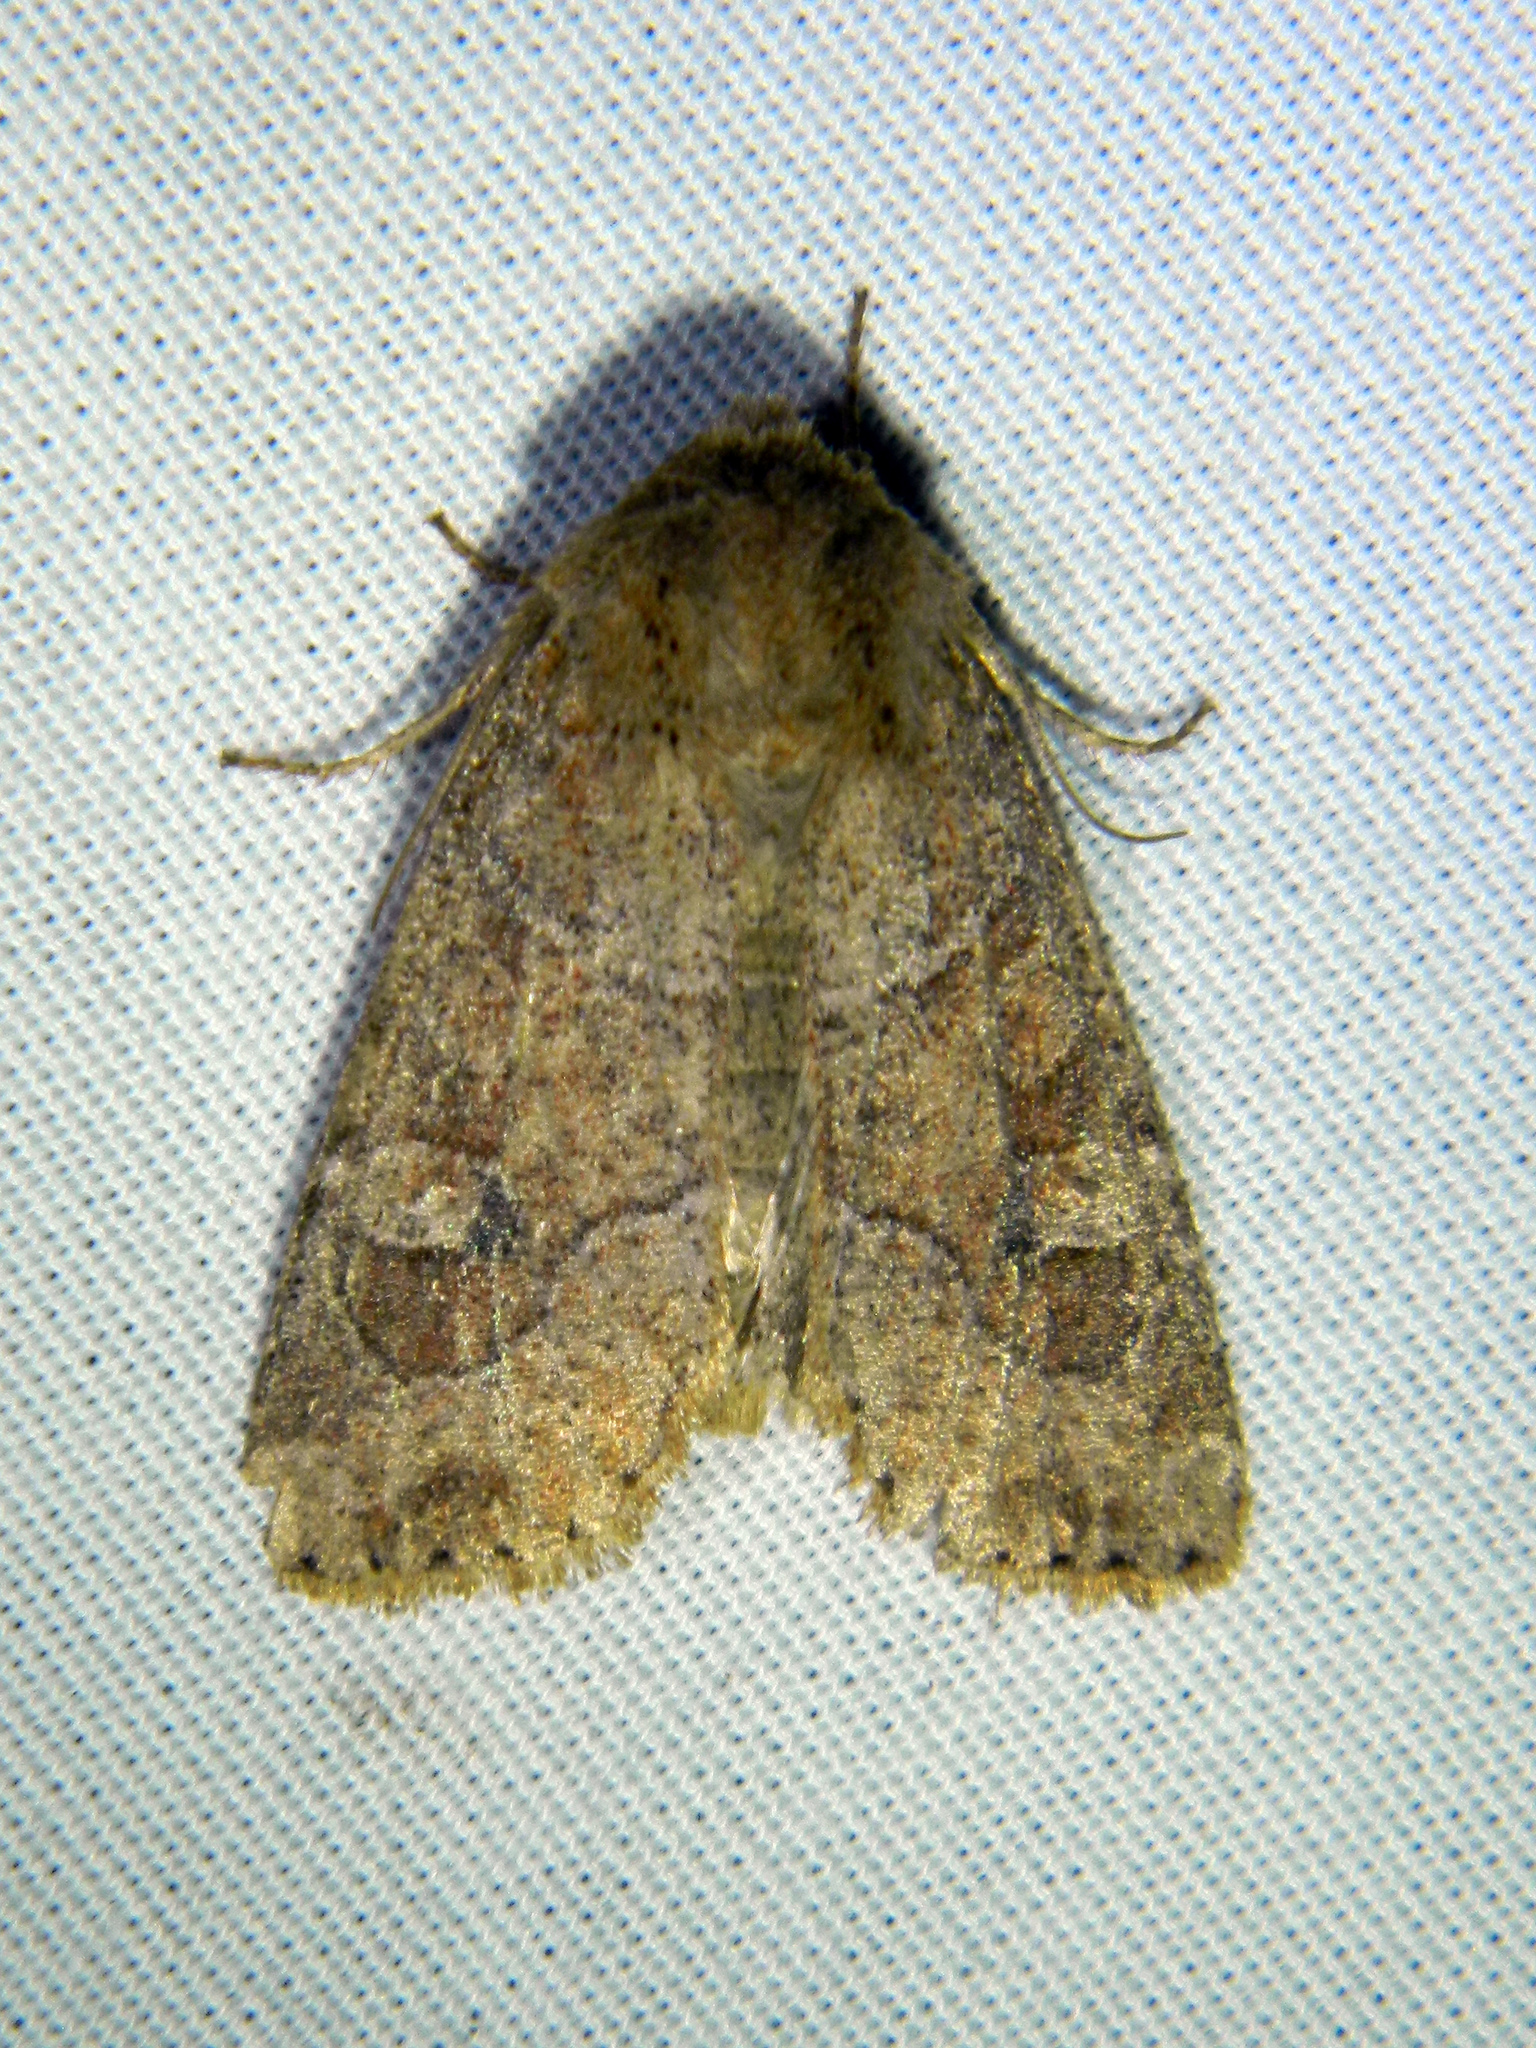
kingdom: Animalia
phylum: Arthropoda
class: Insecta
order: Lepidoptera
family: Noctuidae
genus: Crocigrapha
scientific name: Crocigrapha normani
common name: Norman's quaker
